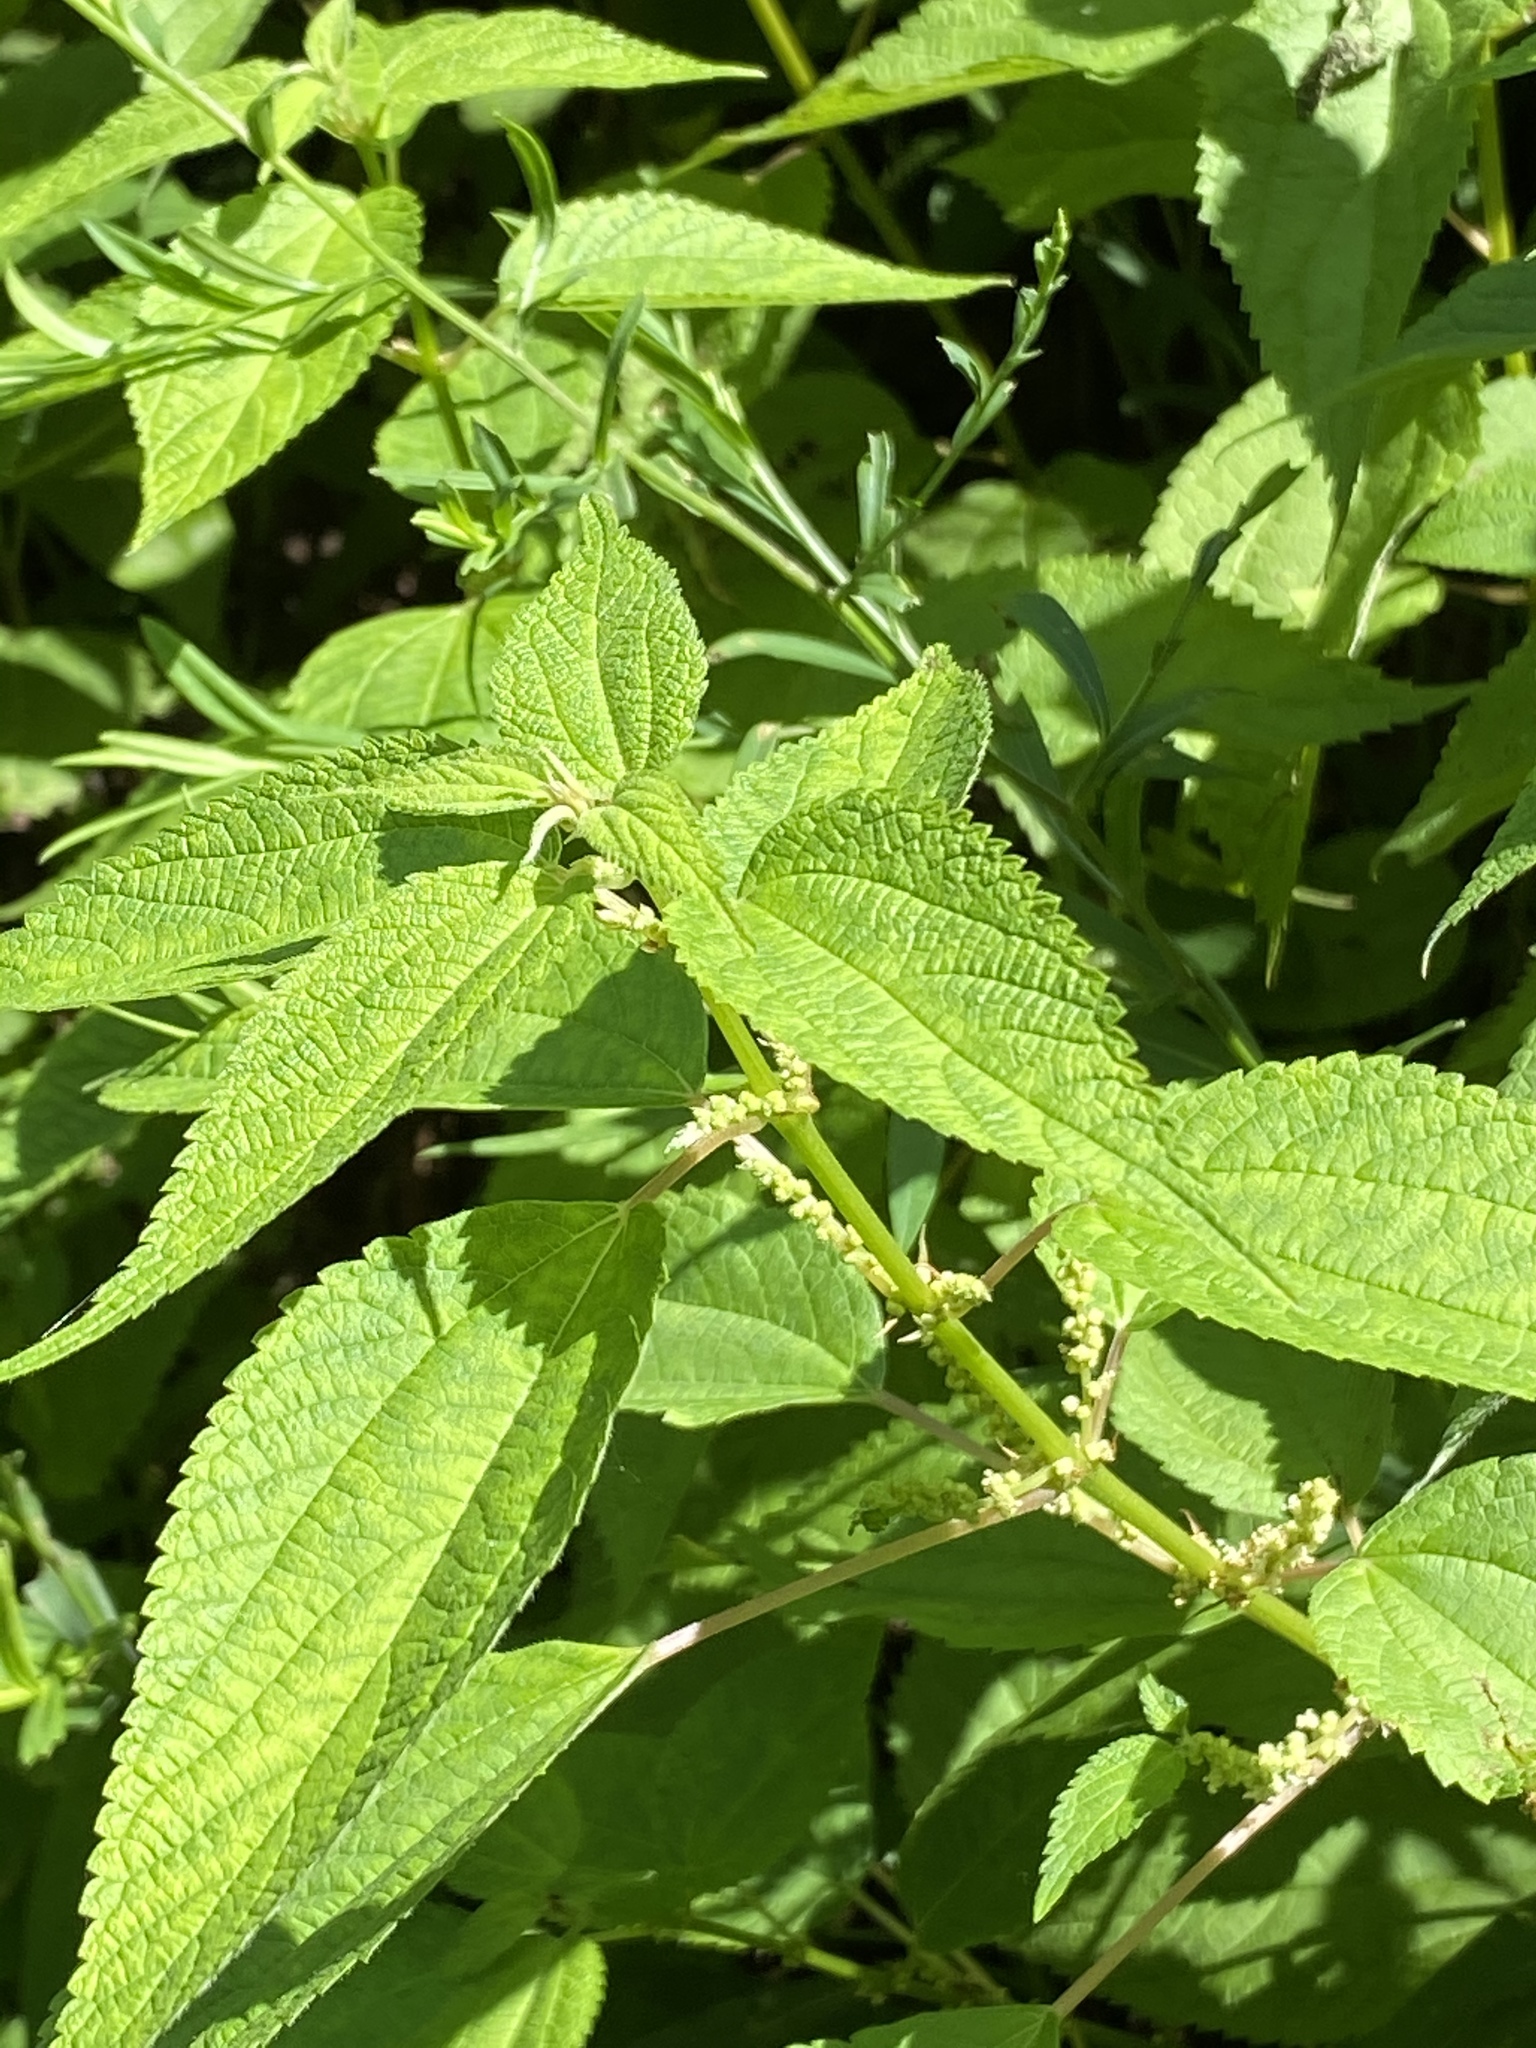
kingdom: Plantae
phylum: Tracheophyta
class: Magnoliopsida
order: Rosales
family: Urticaceae
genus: Boehmeria
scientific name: Boehmeria cylindrica
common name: Bog-hemp
